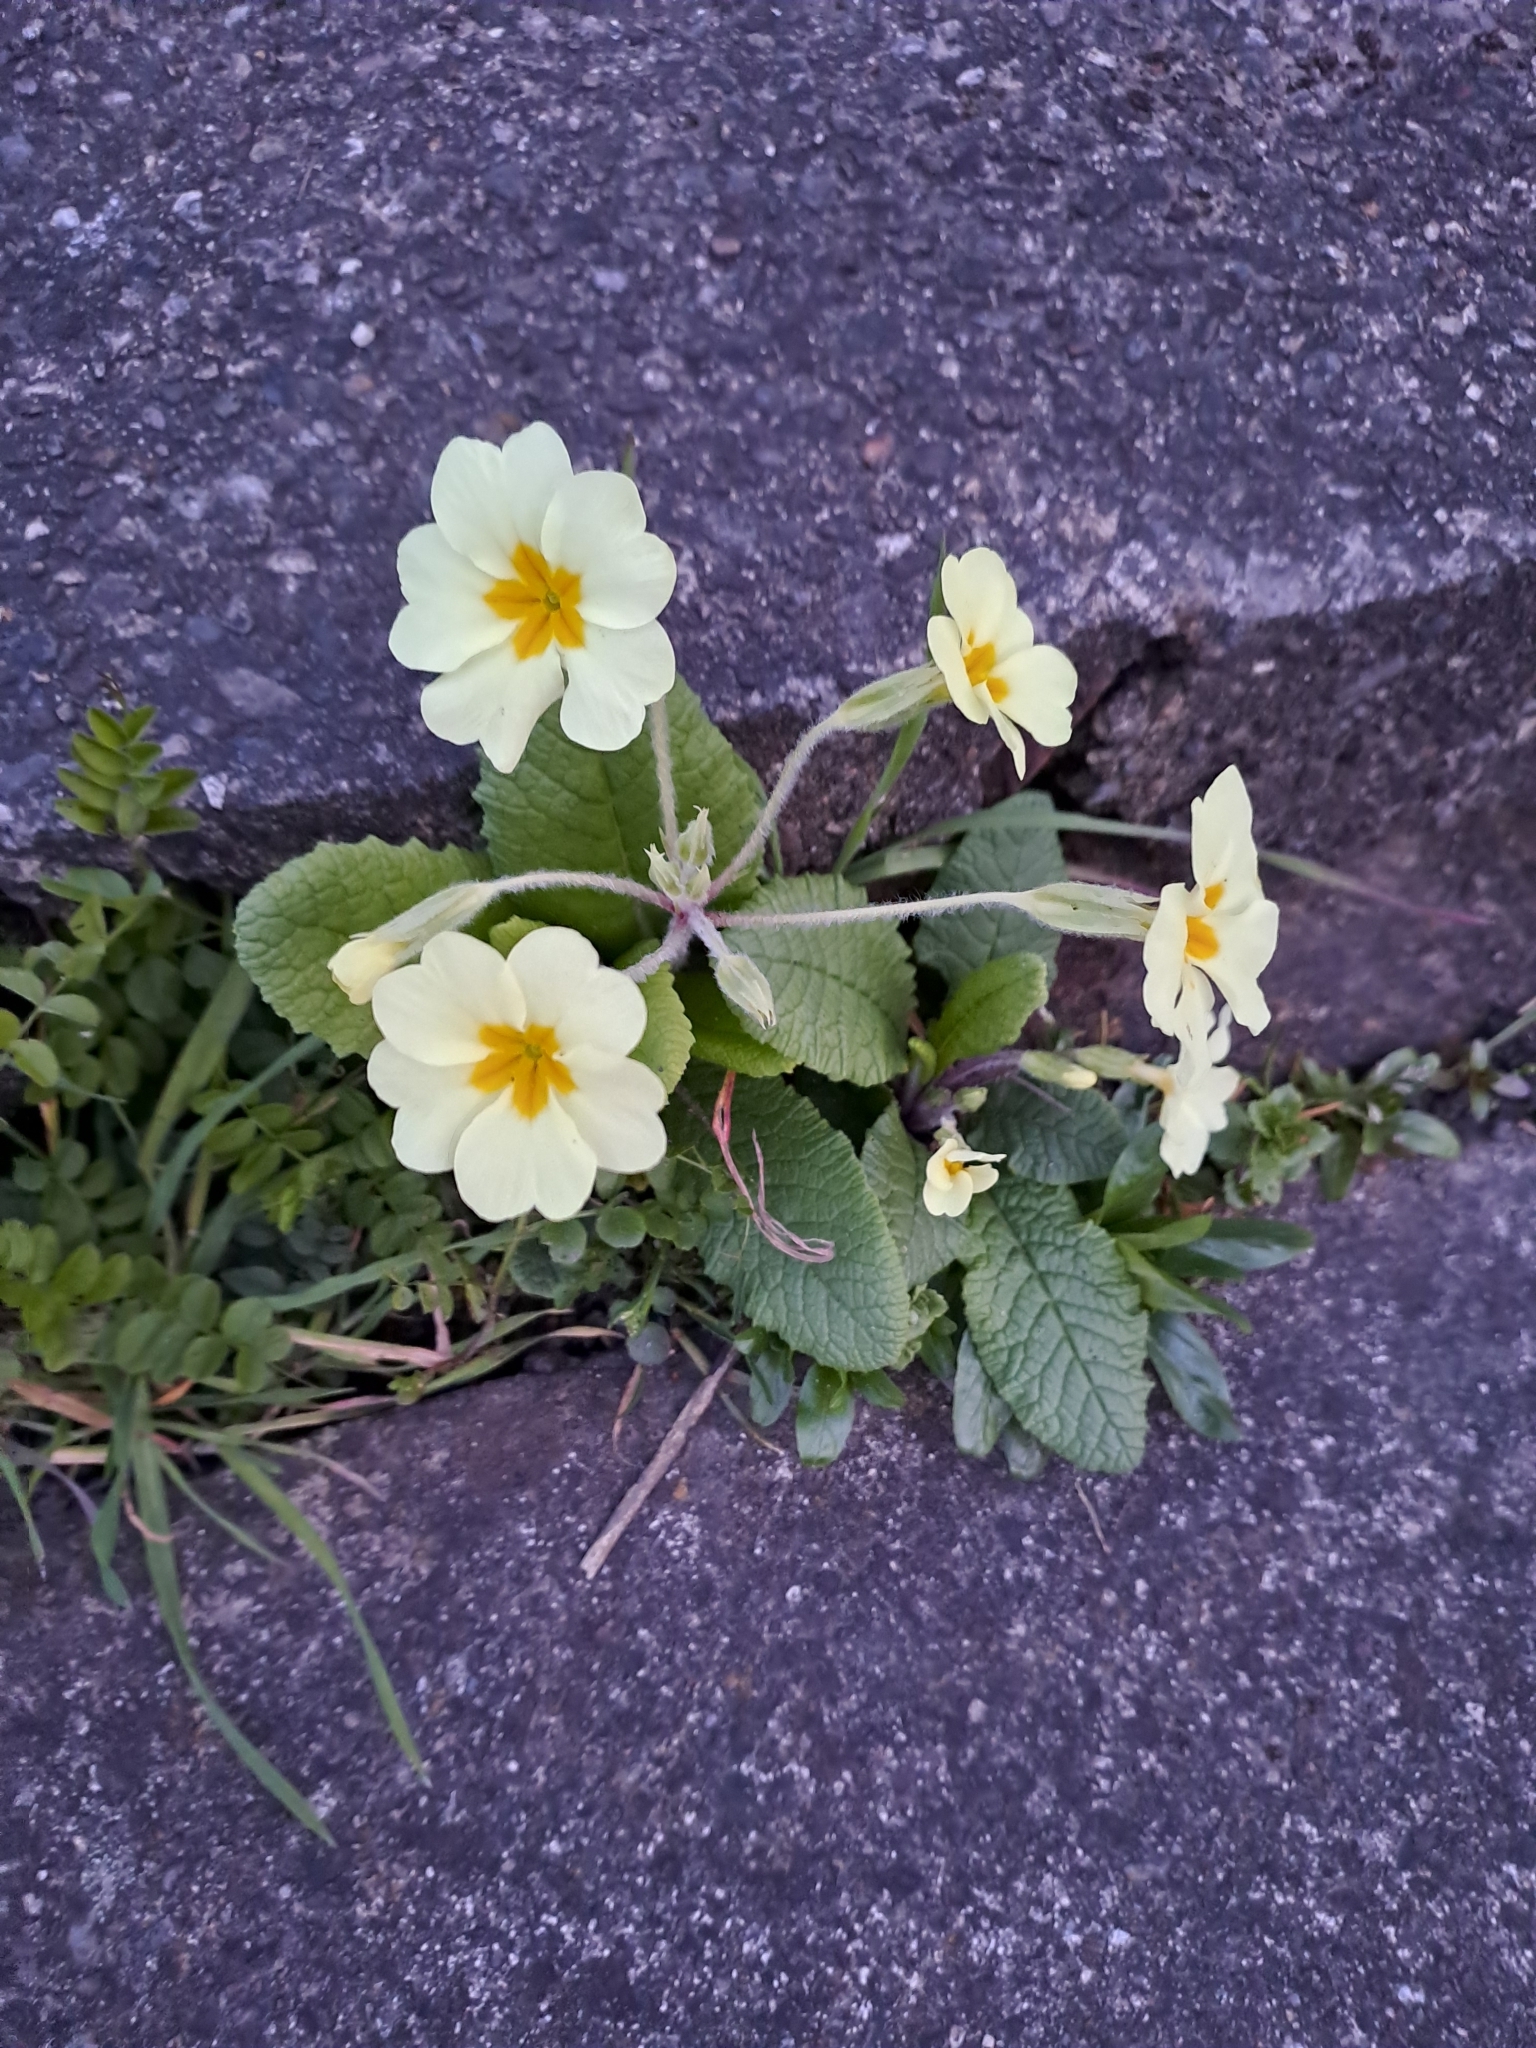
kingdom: Plantae
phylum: Tracheophyta
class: Magnoliopsida
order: Ericales
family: Primulaceae
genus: Primula
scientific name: Primula vulgaris
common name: Primrose
